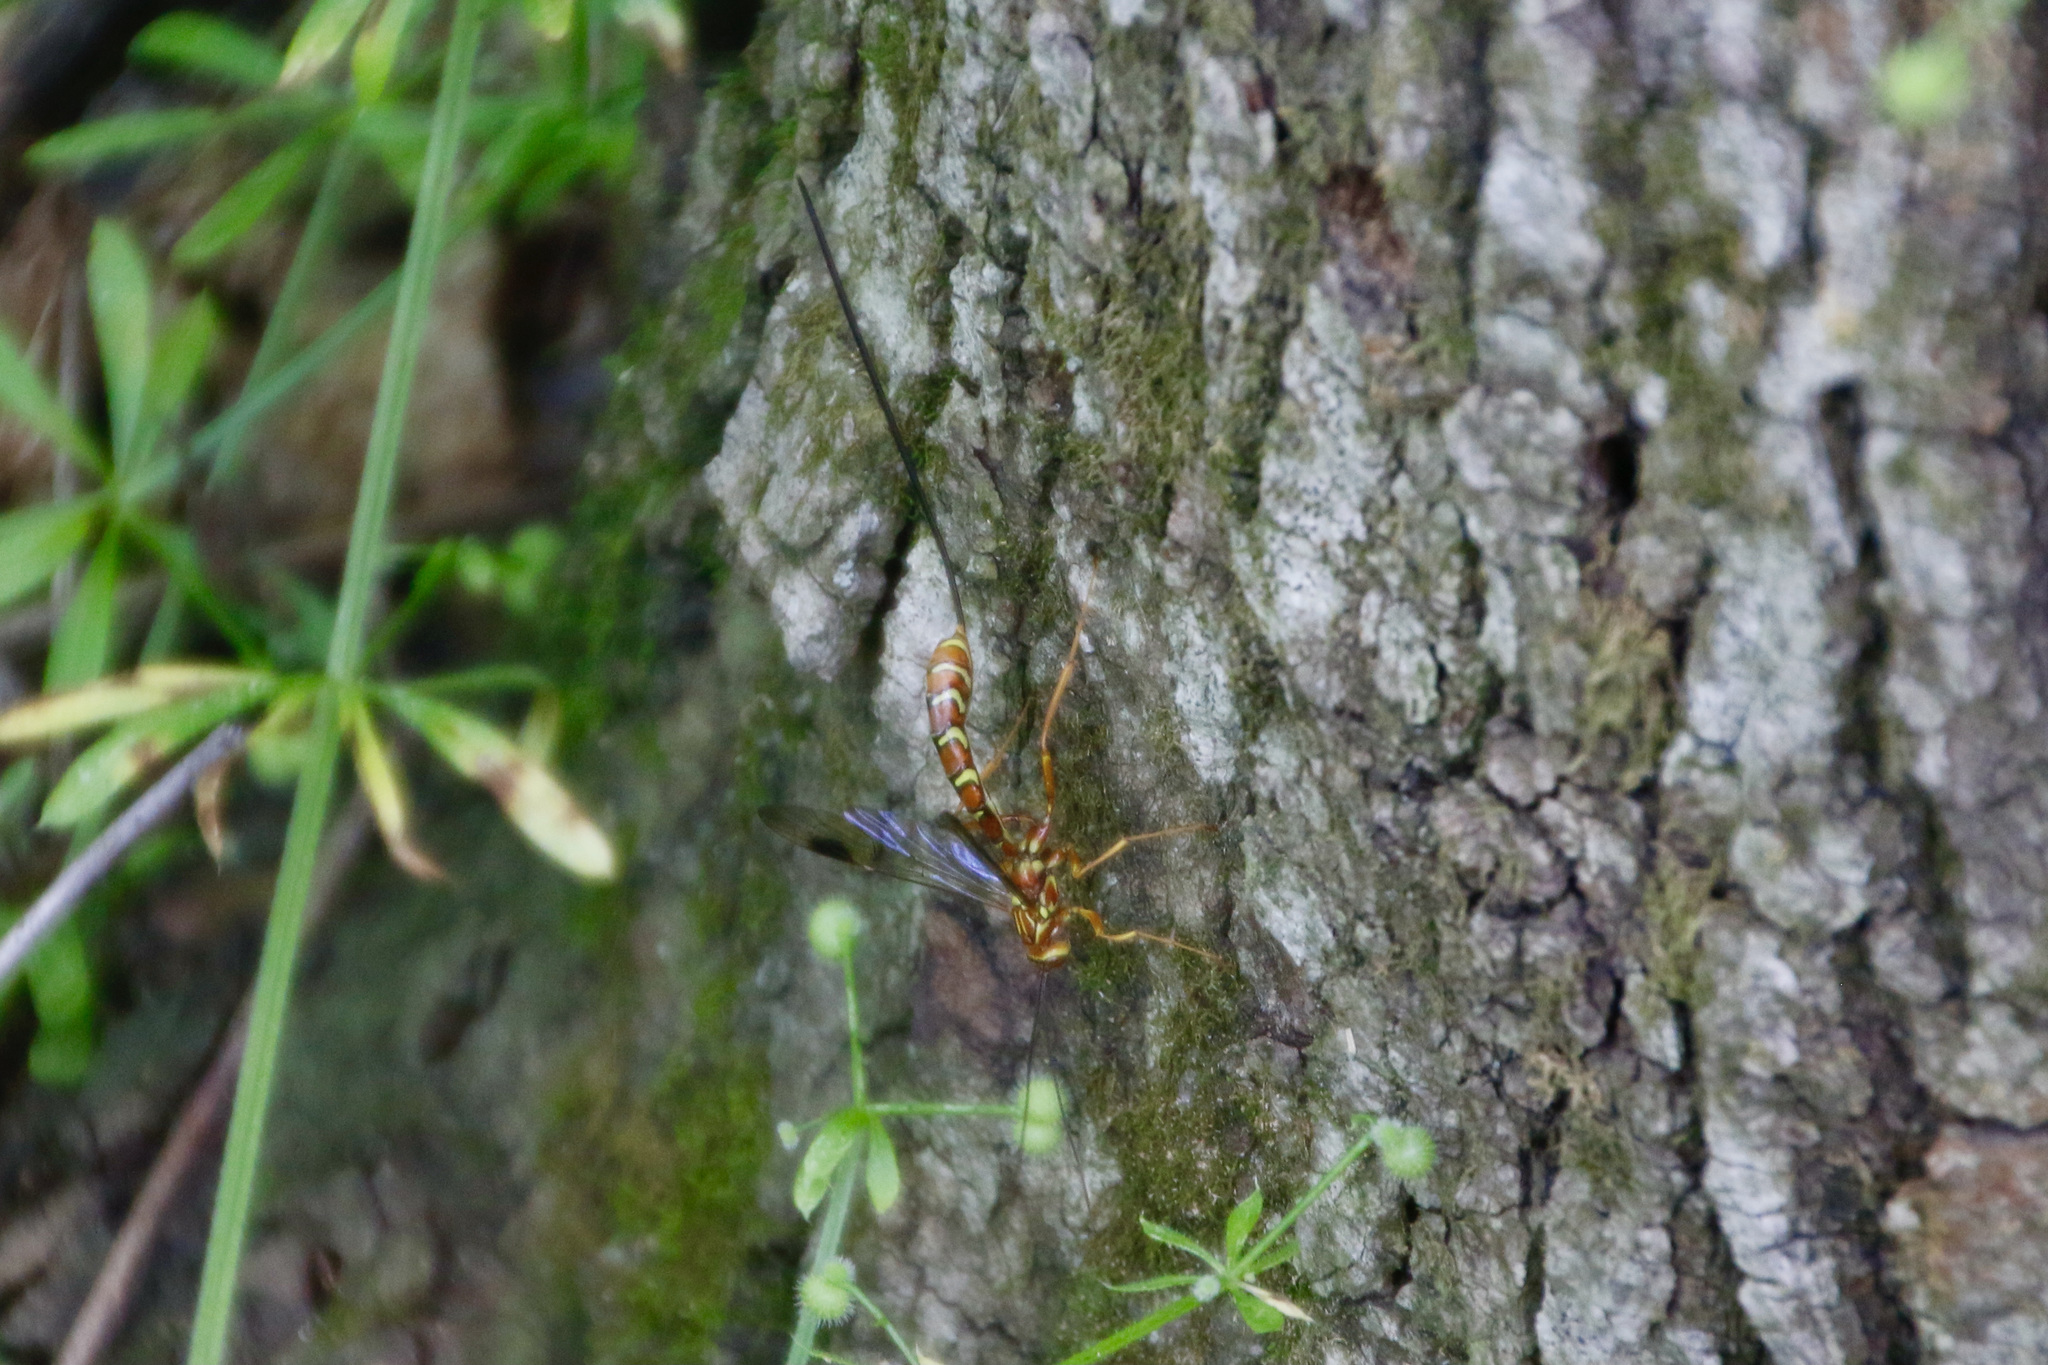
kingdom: Animalia
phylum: Arthropoda
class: Insecta
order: Hymenoptera
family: Ichneumonidae
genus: Megarhyssa
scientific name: Megarhyssa greenei
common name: Greene's giant ichneumonid wasp
